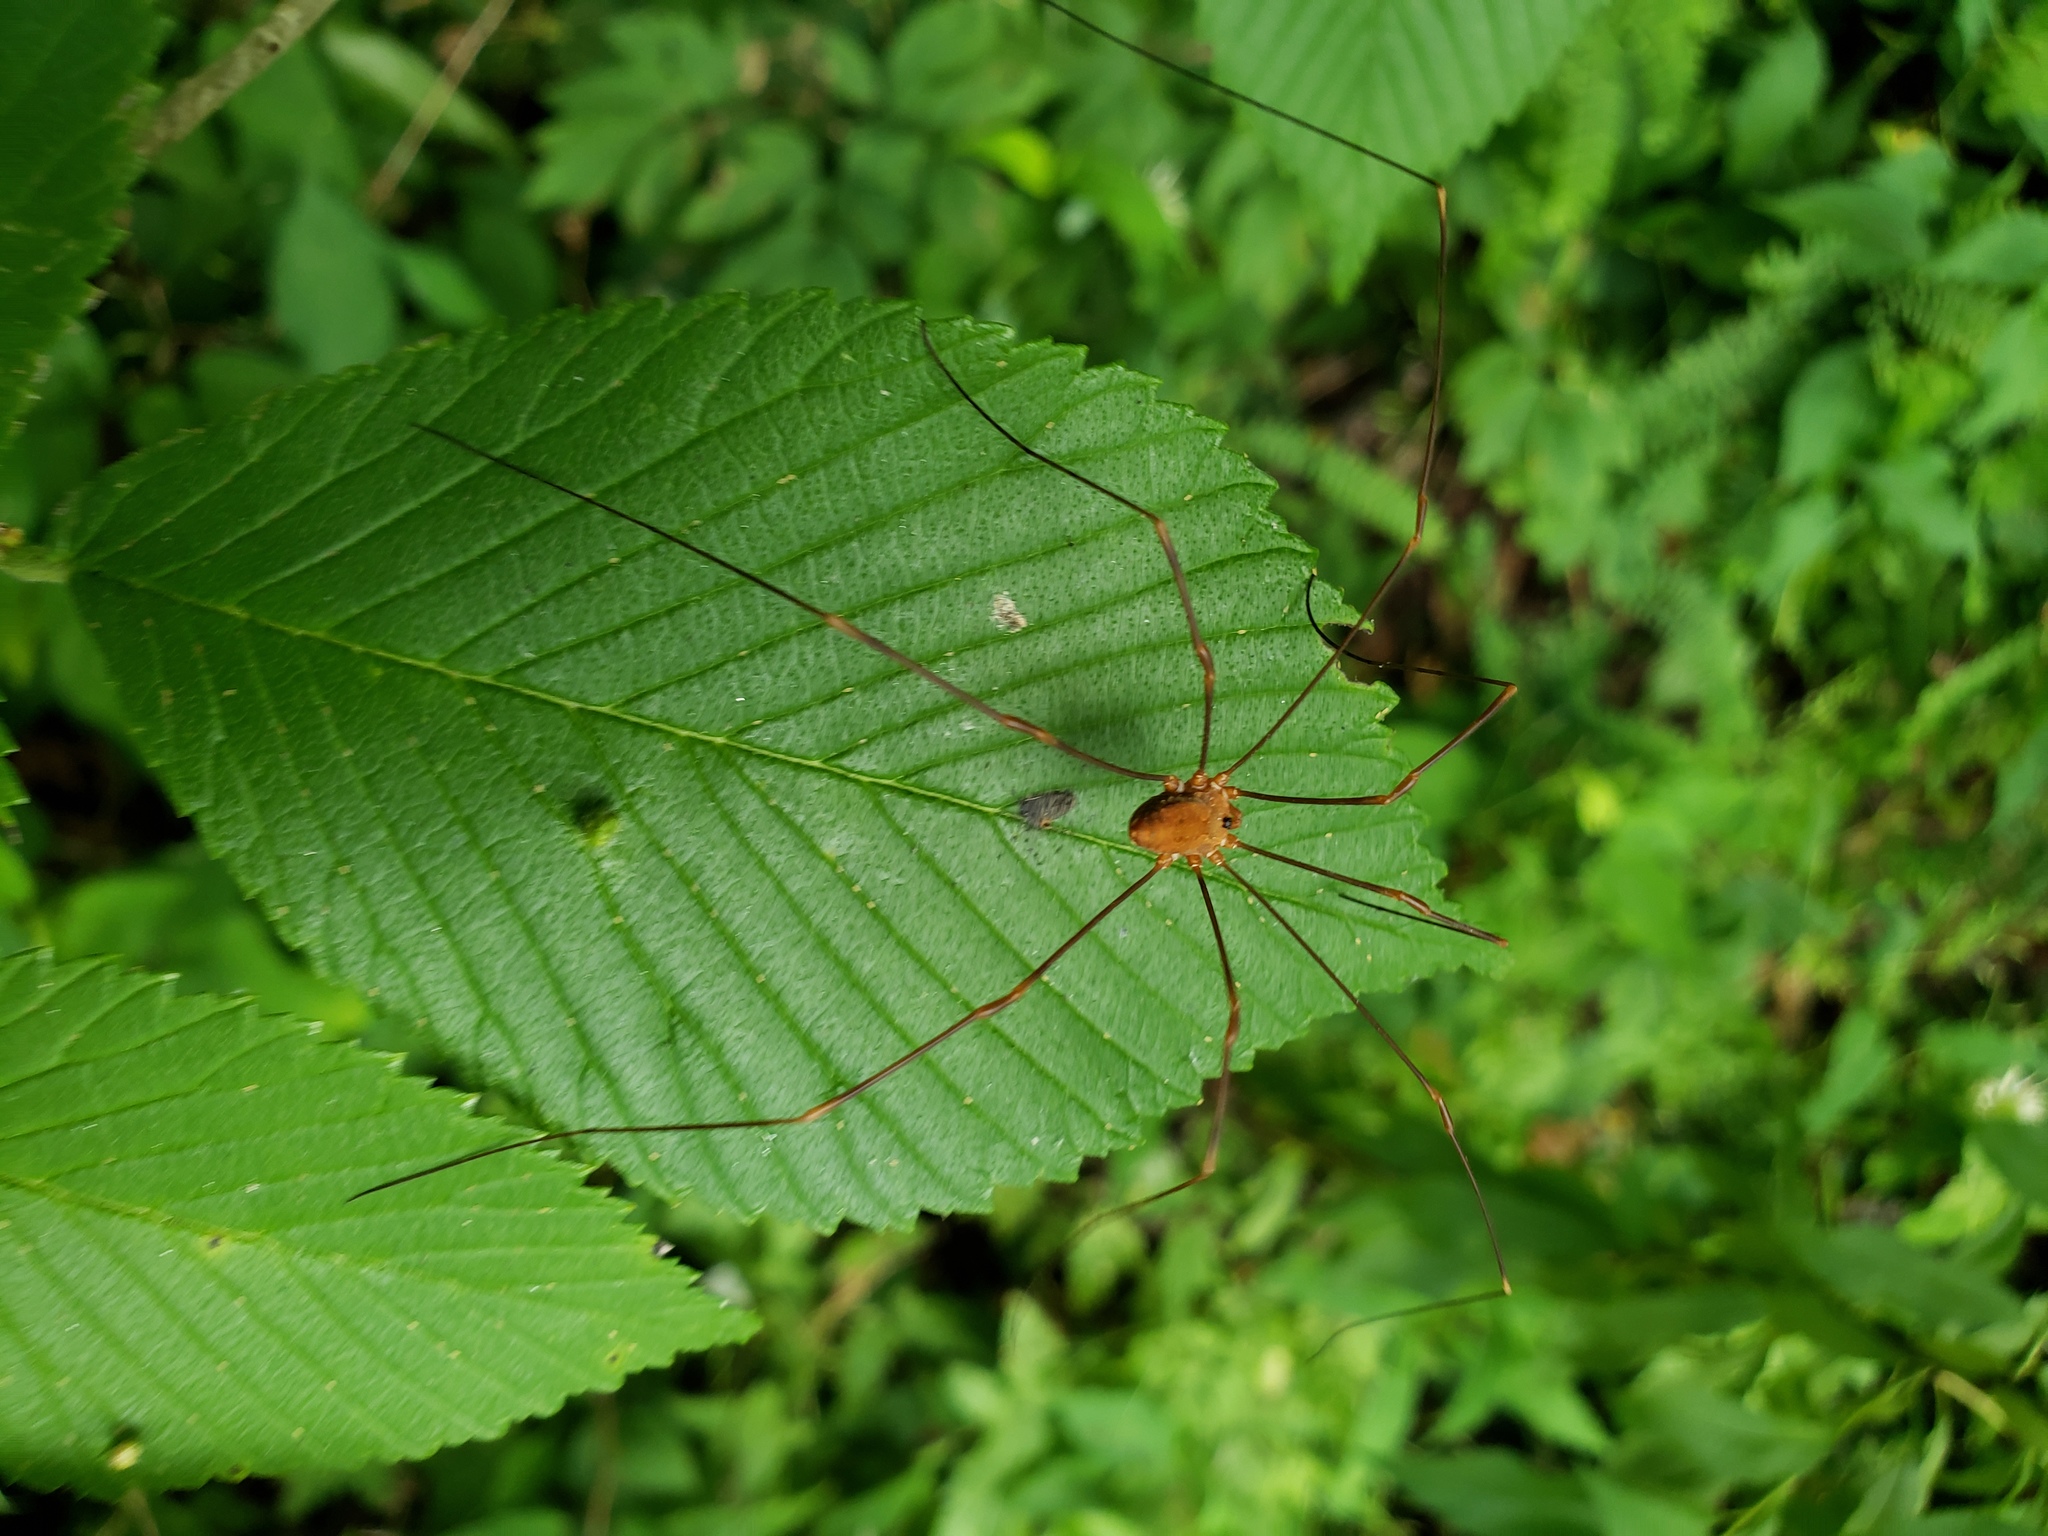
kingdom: Animalia
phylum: Arthropoda
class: Arachnida
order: Opiliones
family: Sclerosomatidae
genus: Leiobunum
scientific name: Leiobunum ventricosum
